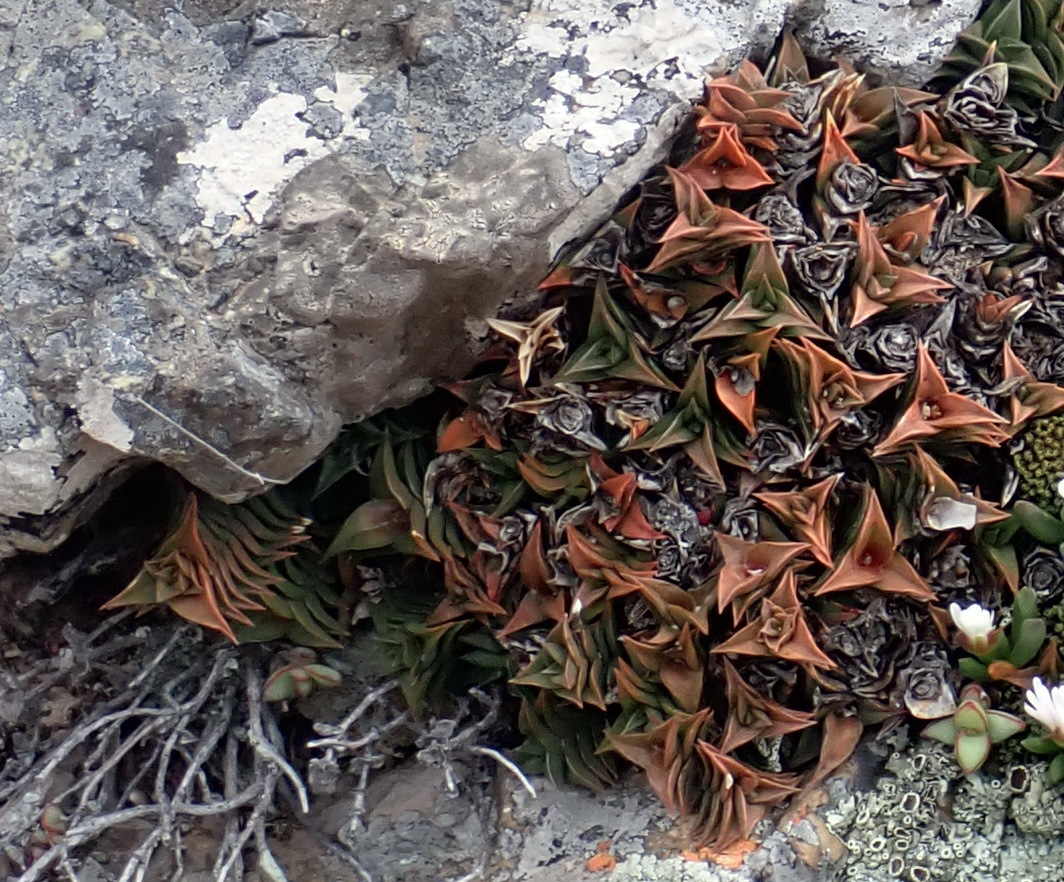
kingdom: Plantae
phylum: Tracheophyta
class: Liliopsida
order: Asparagales
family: Asphodelaceae
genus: Haworthiopsis
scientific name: Haworthiopsis viscosa
